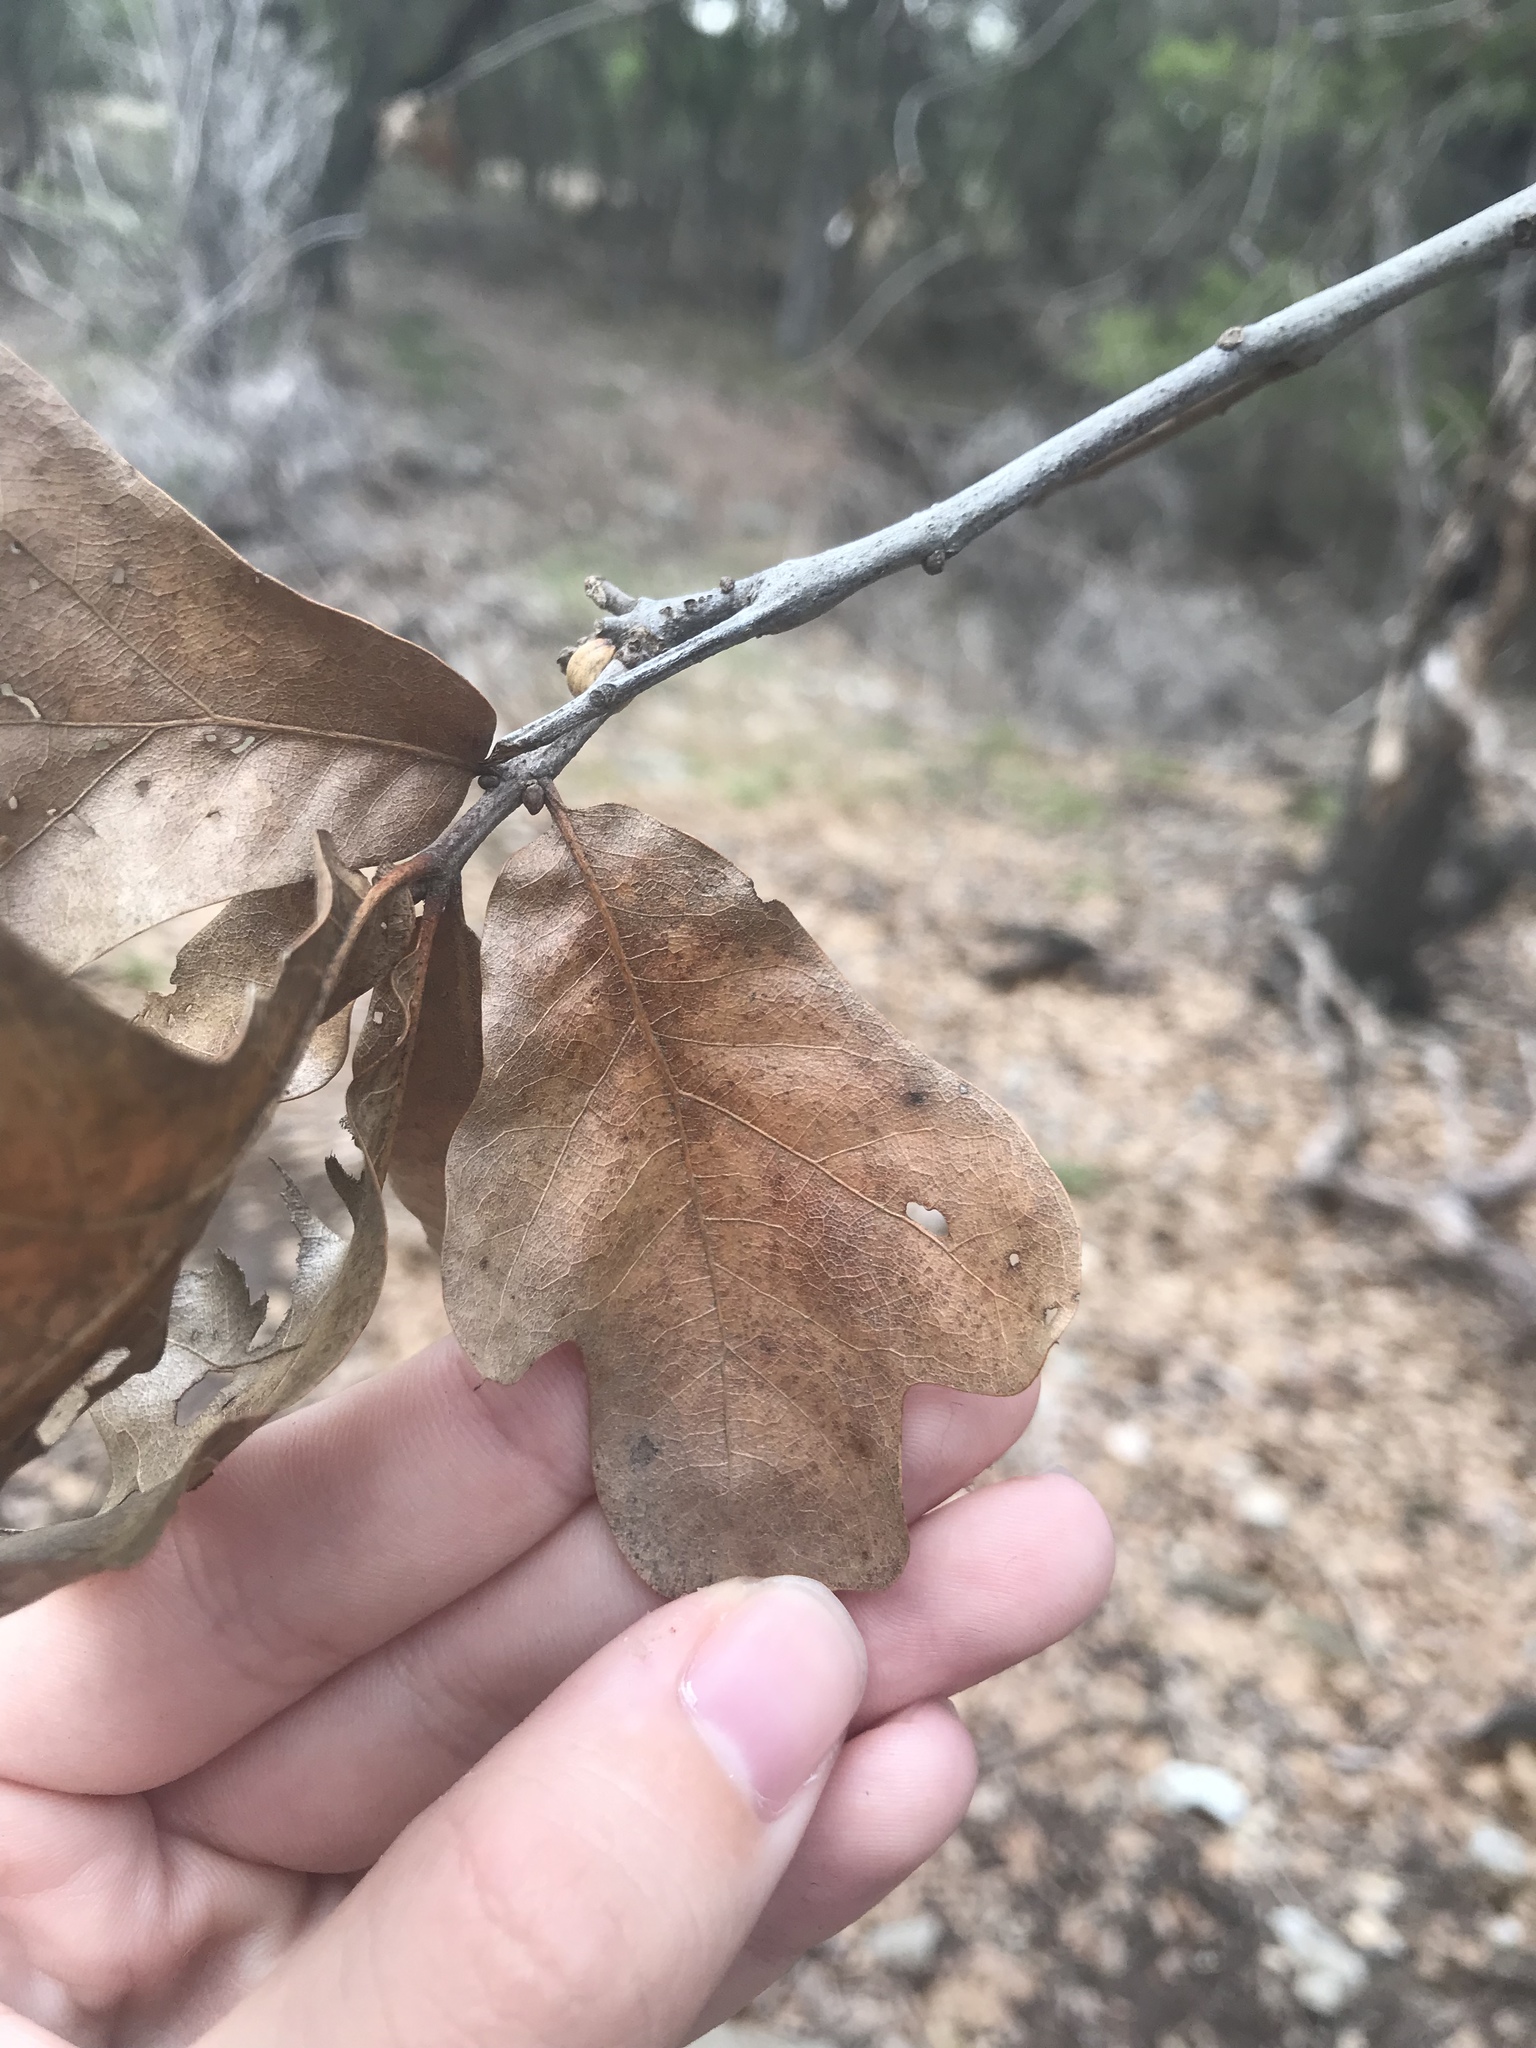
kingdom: Plantae
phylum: Tracheophyta
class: Magnoliopsida
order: Fagales
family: Fagaceae
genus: Quercus
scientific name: Quercus marilandica
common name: Blackjack oak
